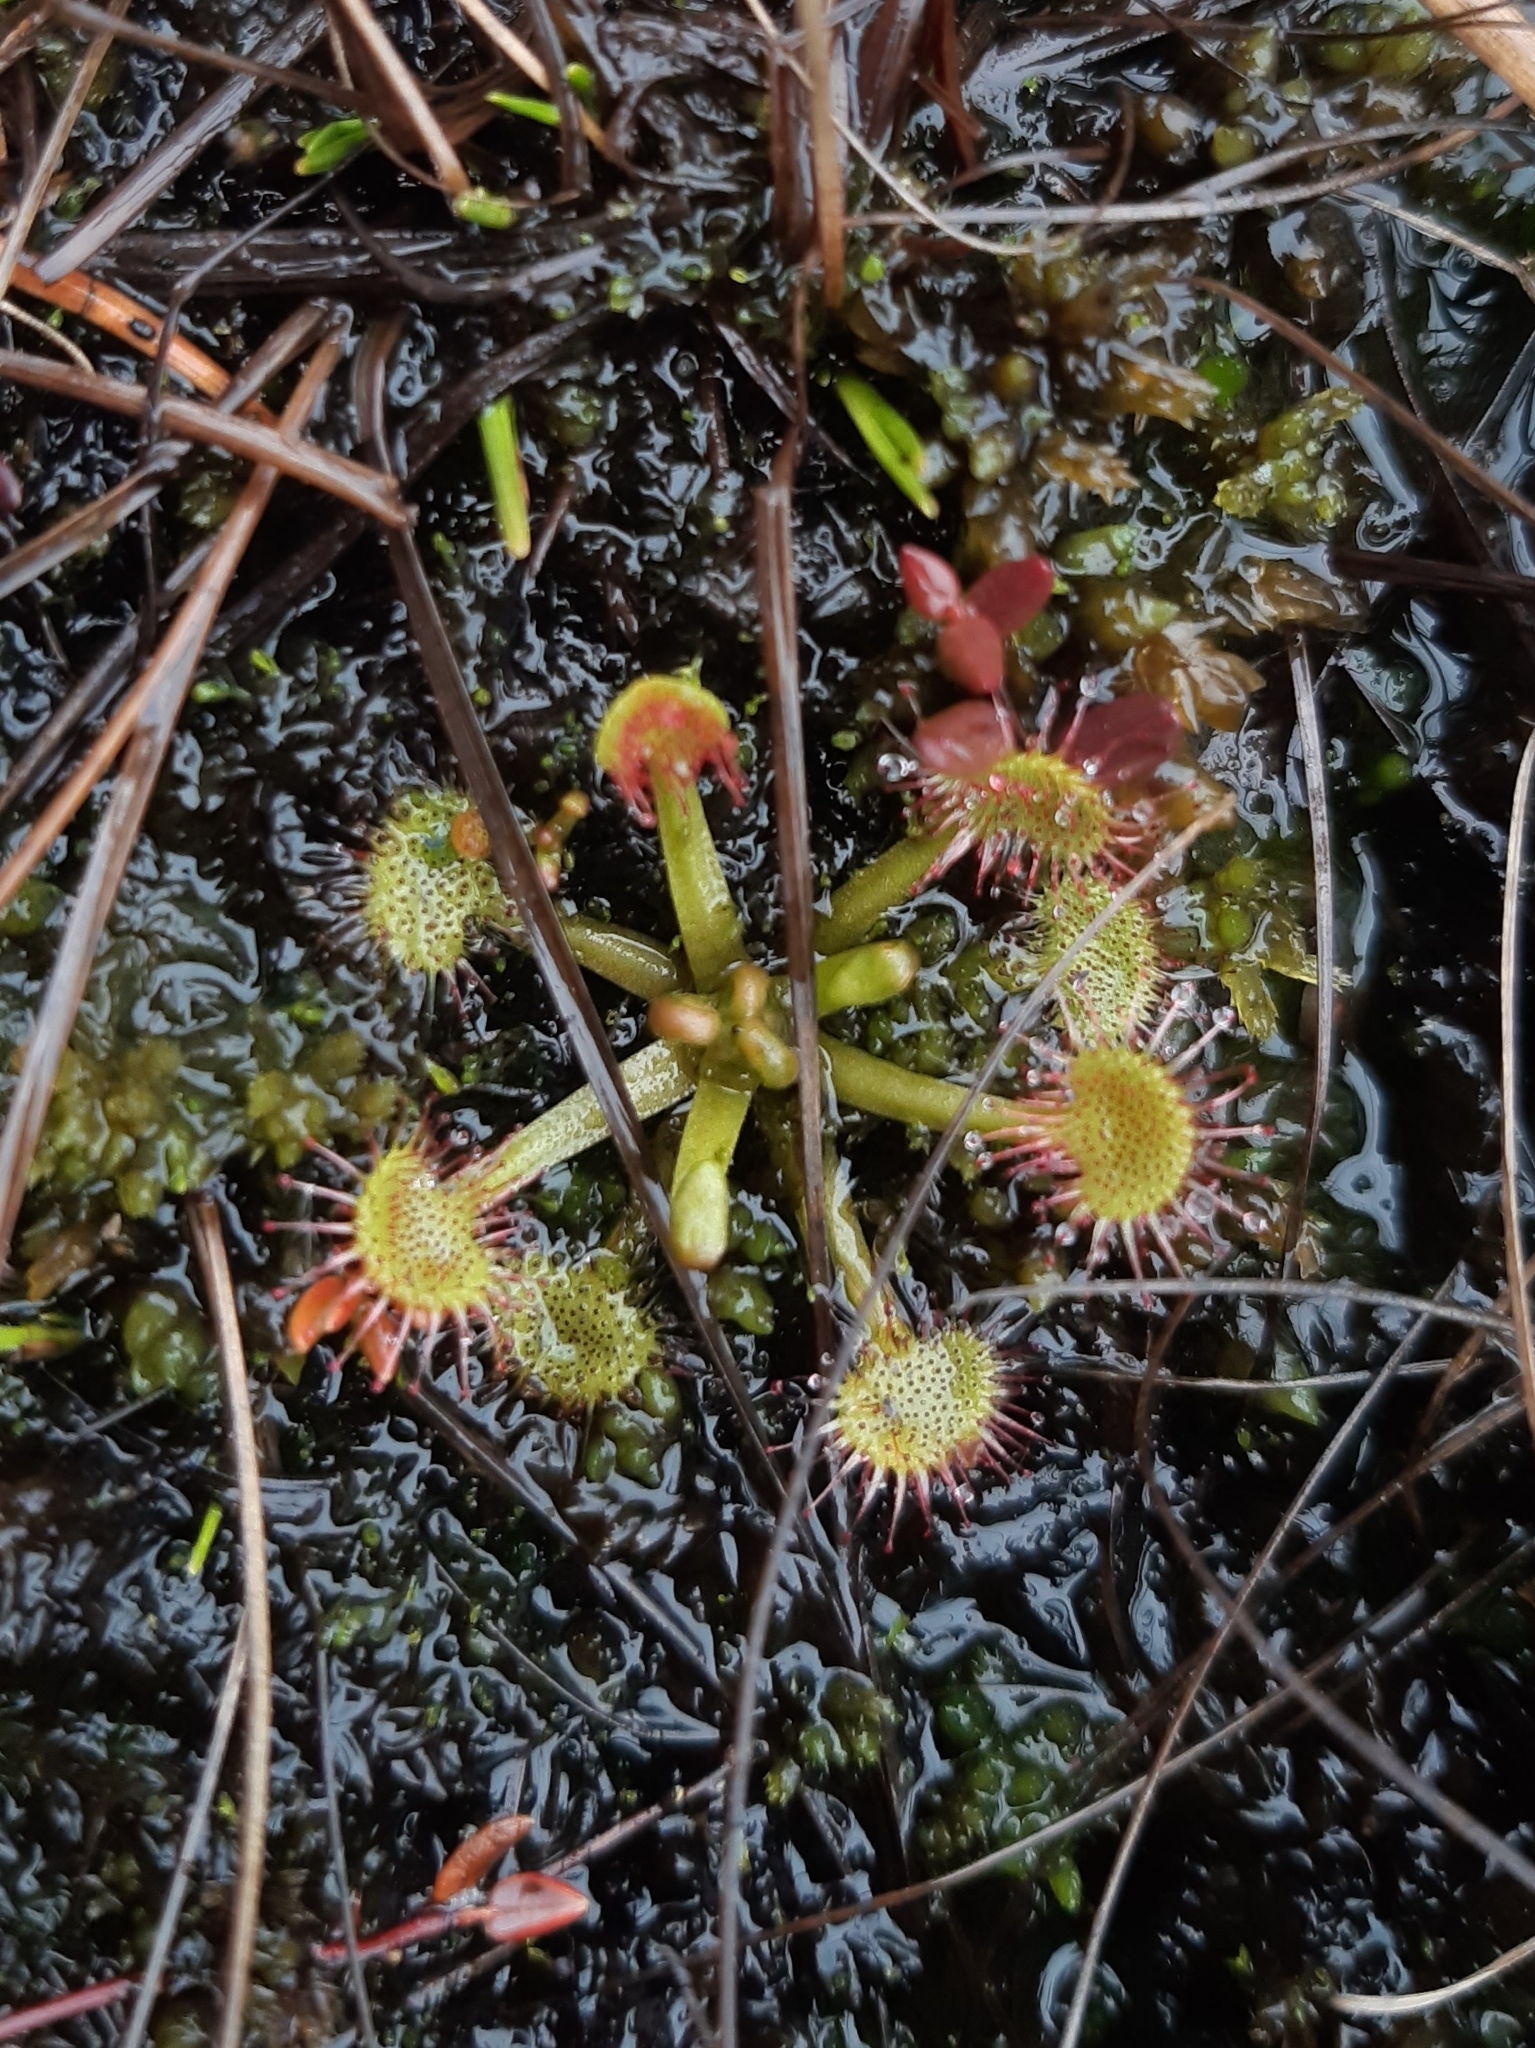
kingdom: Plantae
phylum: Tracheophyta
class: Magnoliopsida
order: Caryophyllales
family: Droseraceae
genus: Drosera
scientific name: Drosera rotundifolia
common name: Round-leaved sundew
